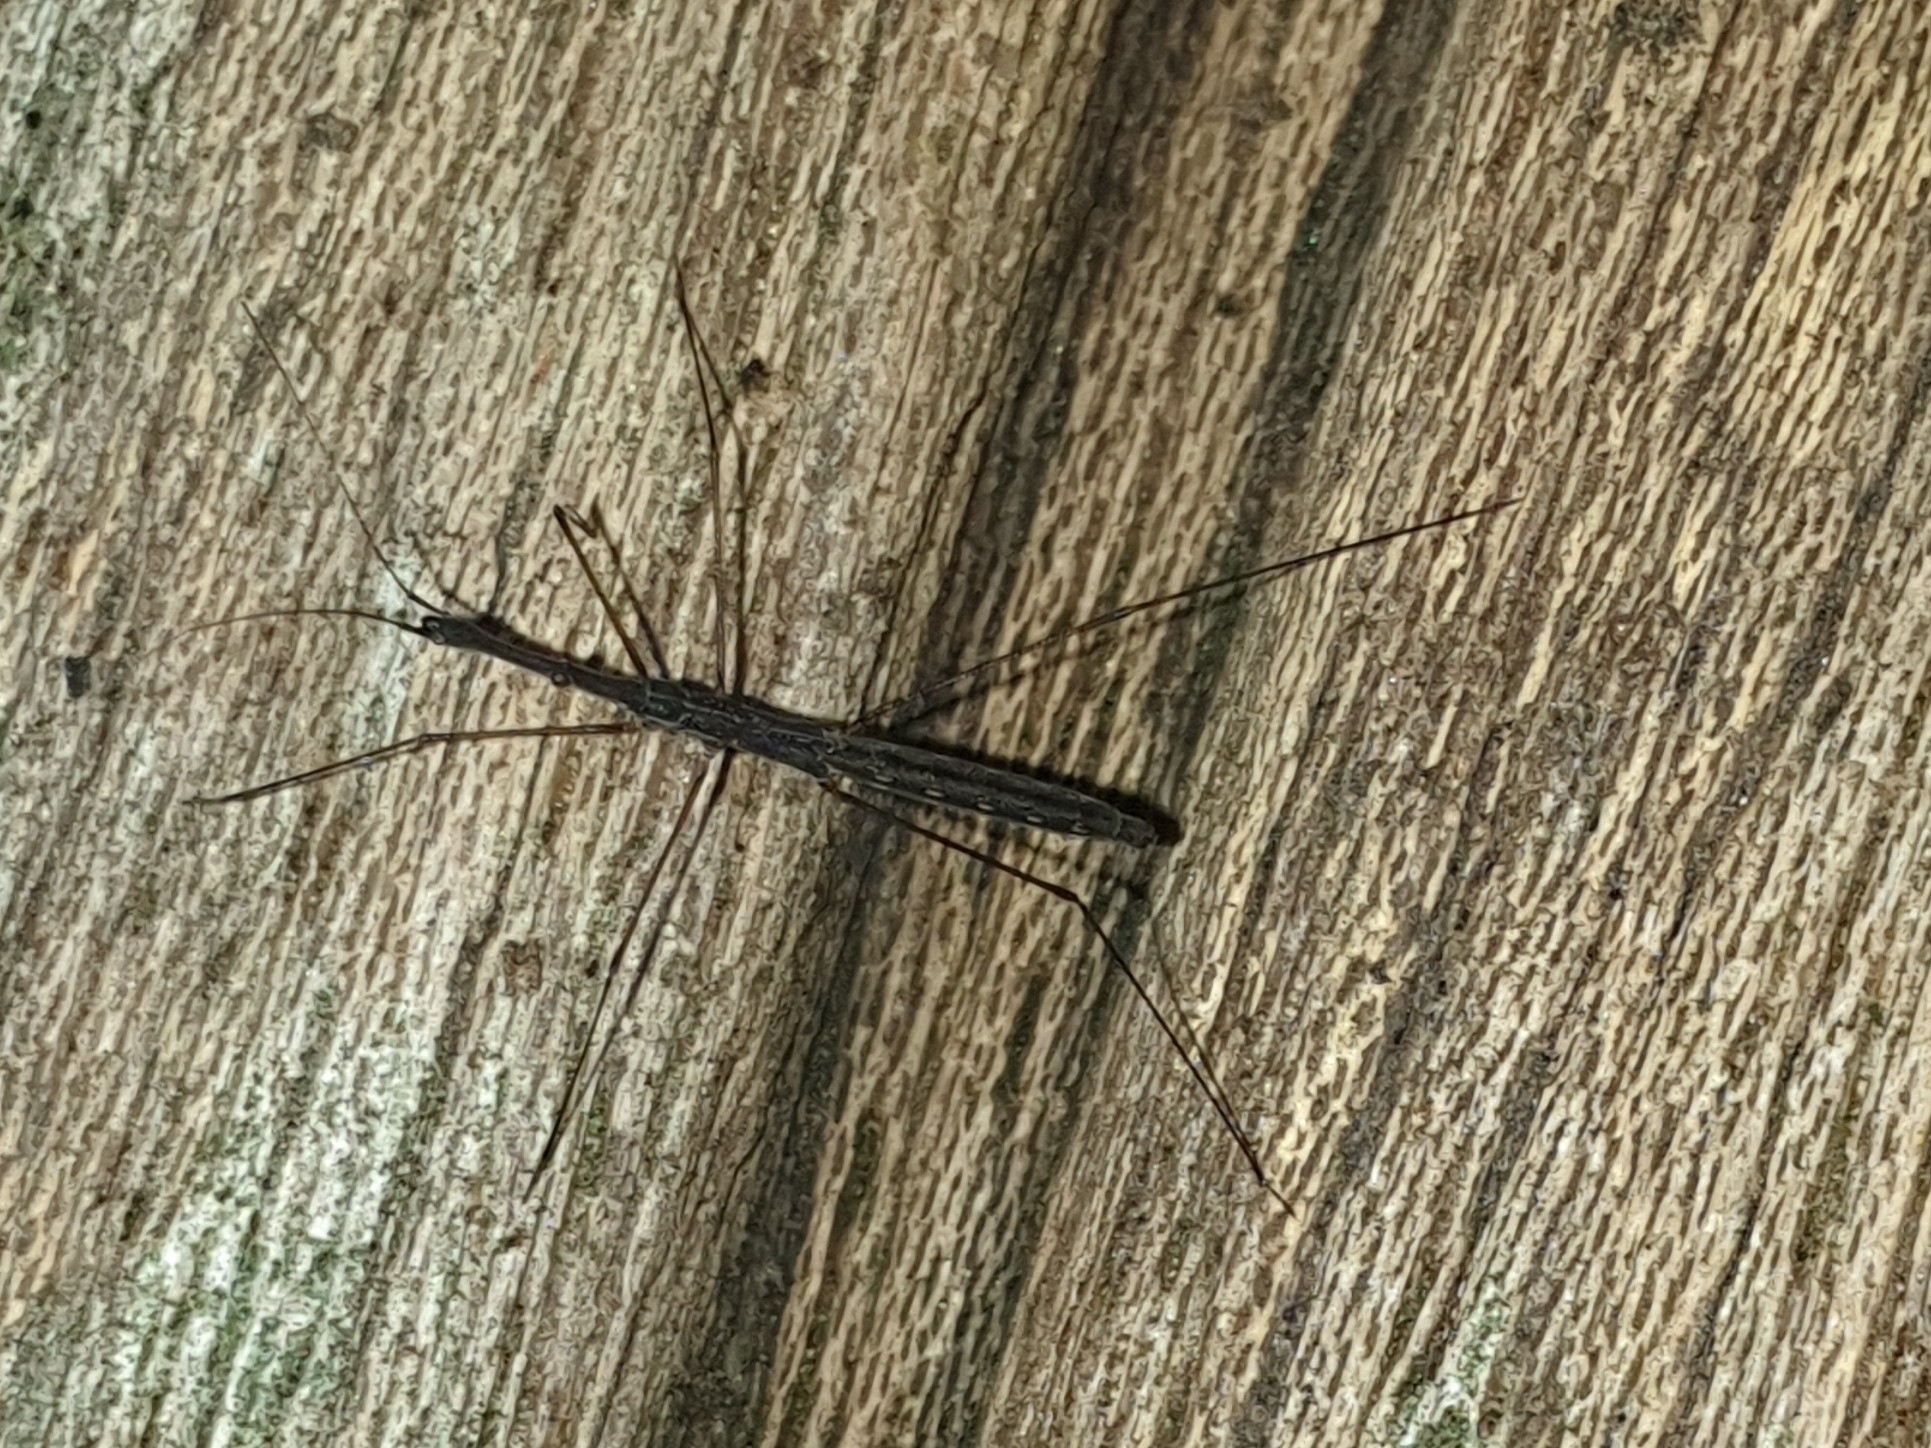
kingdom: Animalia
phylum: Arthropoda
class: Insecta
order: Hemiptera
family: Hydrometridae
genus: Hydrometra
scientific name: Hydrometra stagnorum
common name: Water measurer
